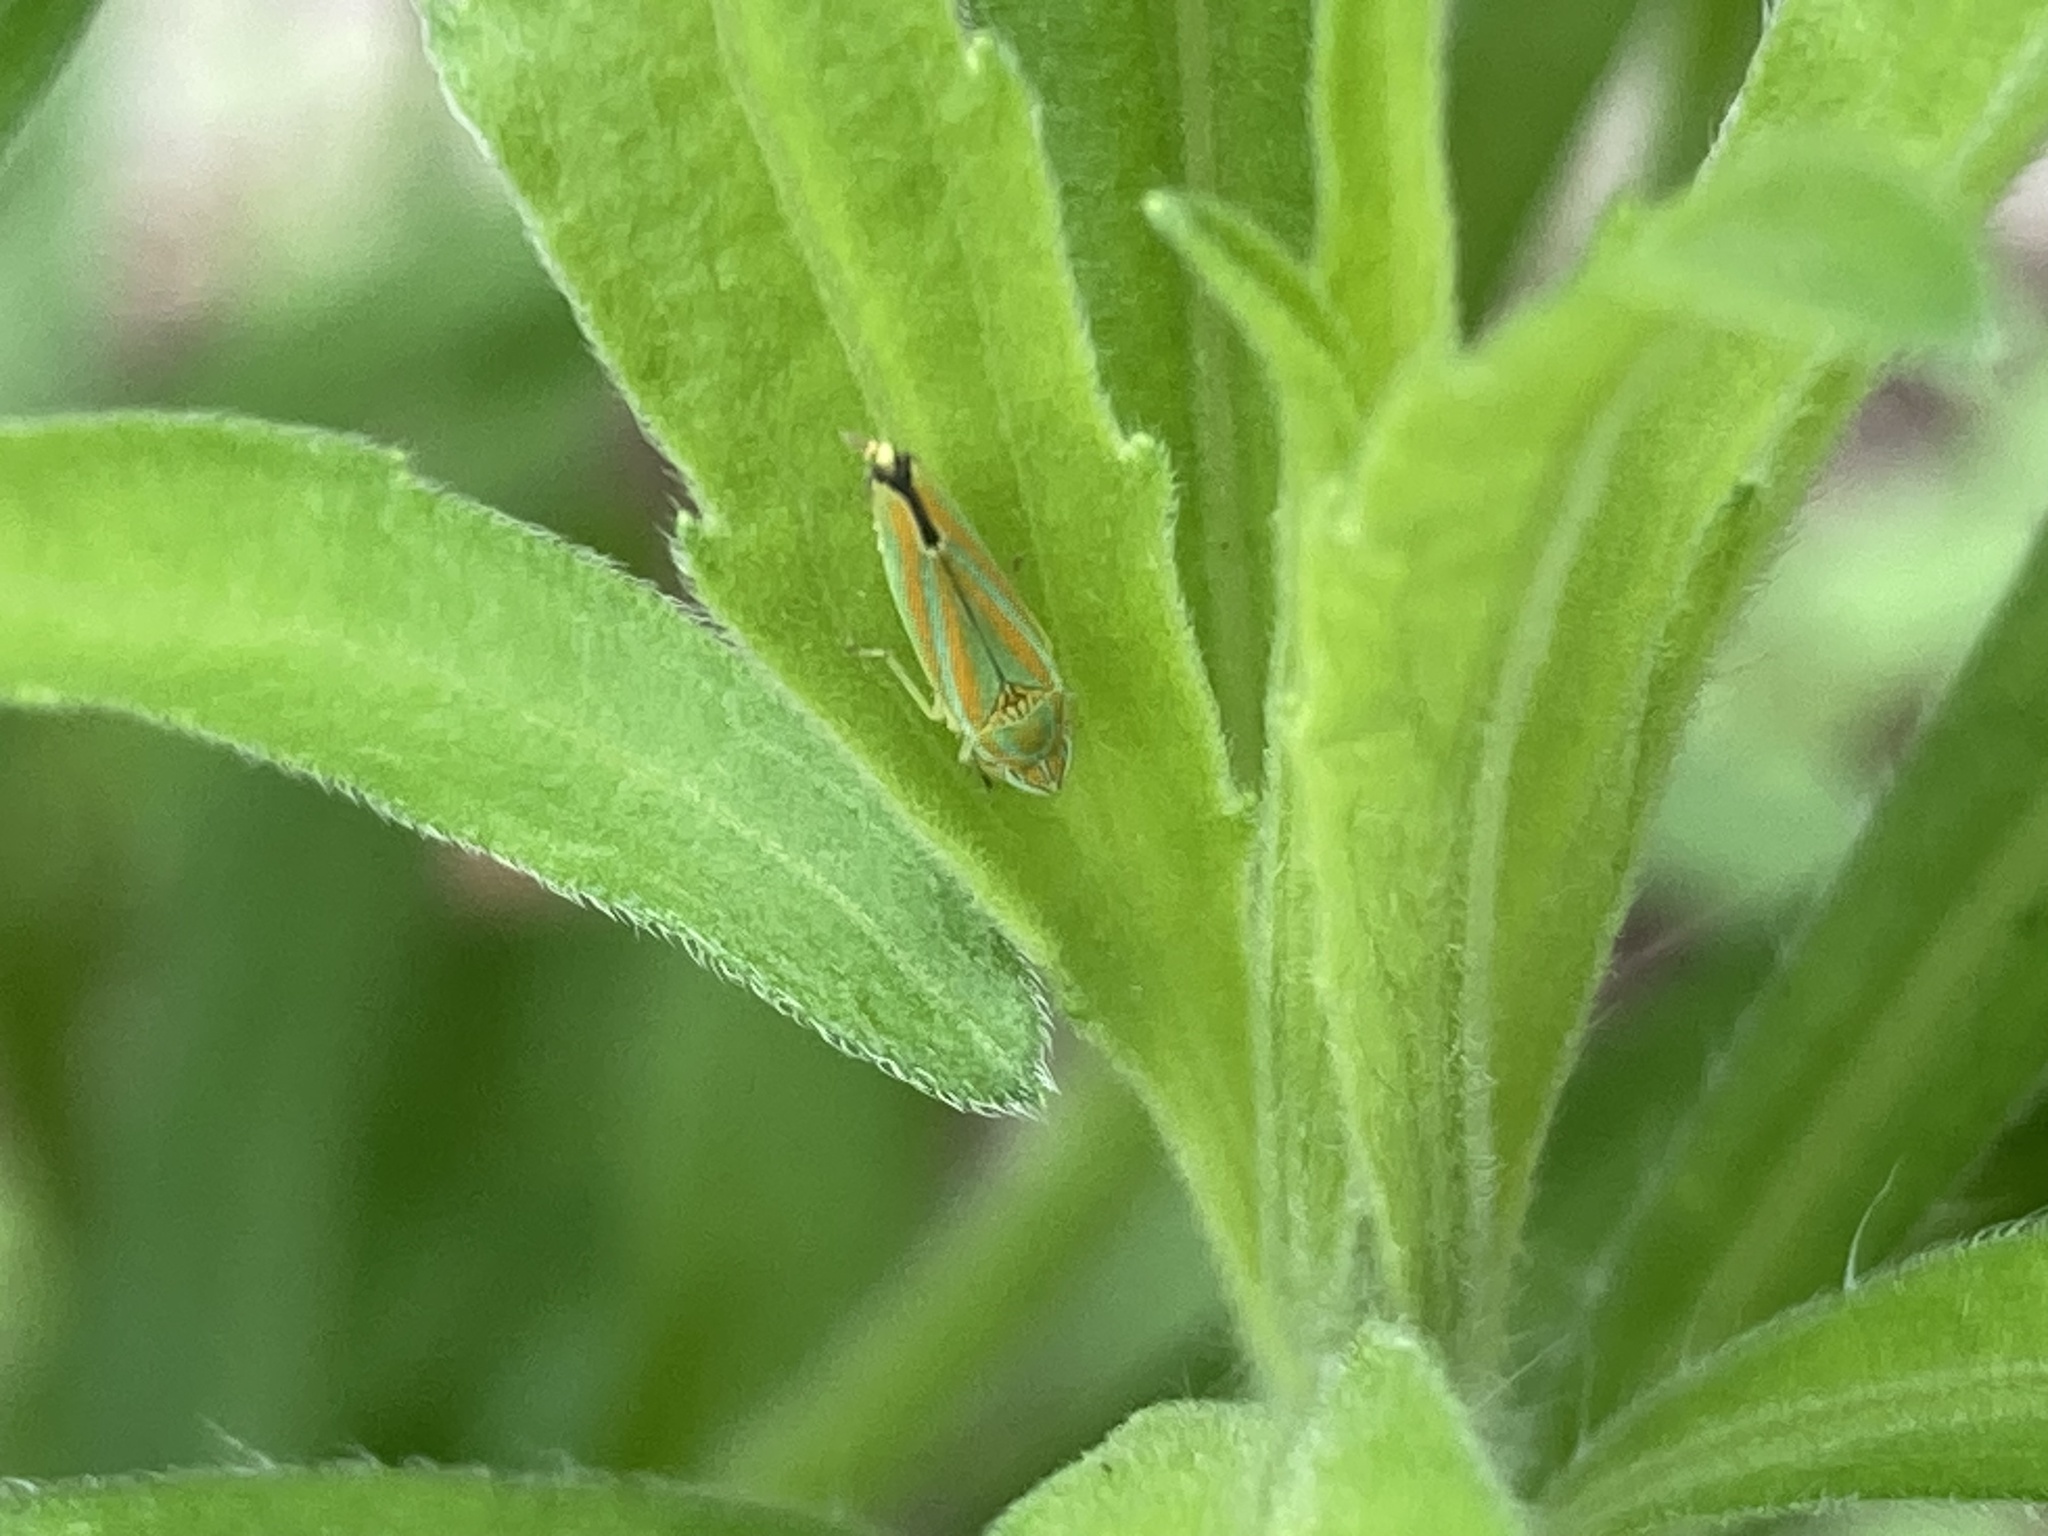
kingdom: Animalia
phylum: Arthropoda
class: Insecta
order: Hemiptera
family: Cicadellidae
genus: Graphocephala
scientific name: Graphocephala versuta
